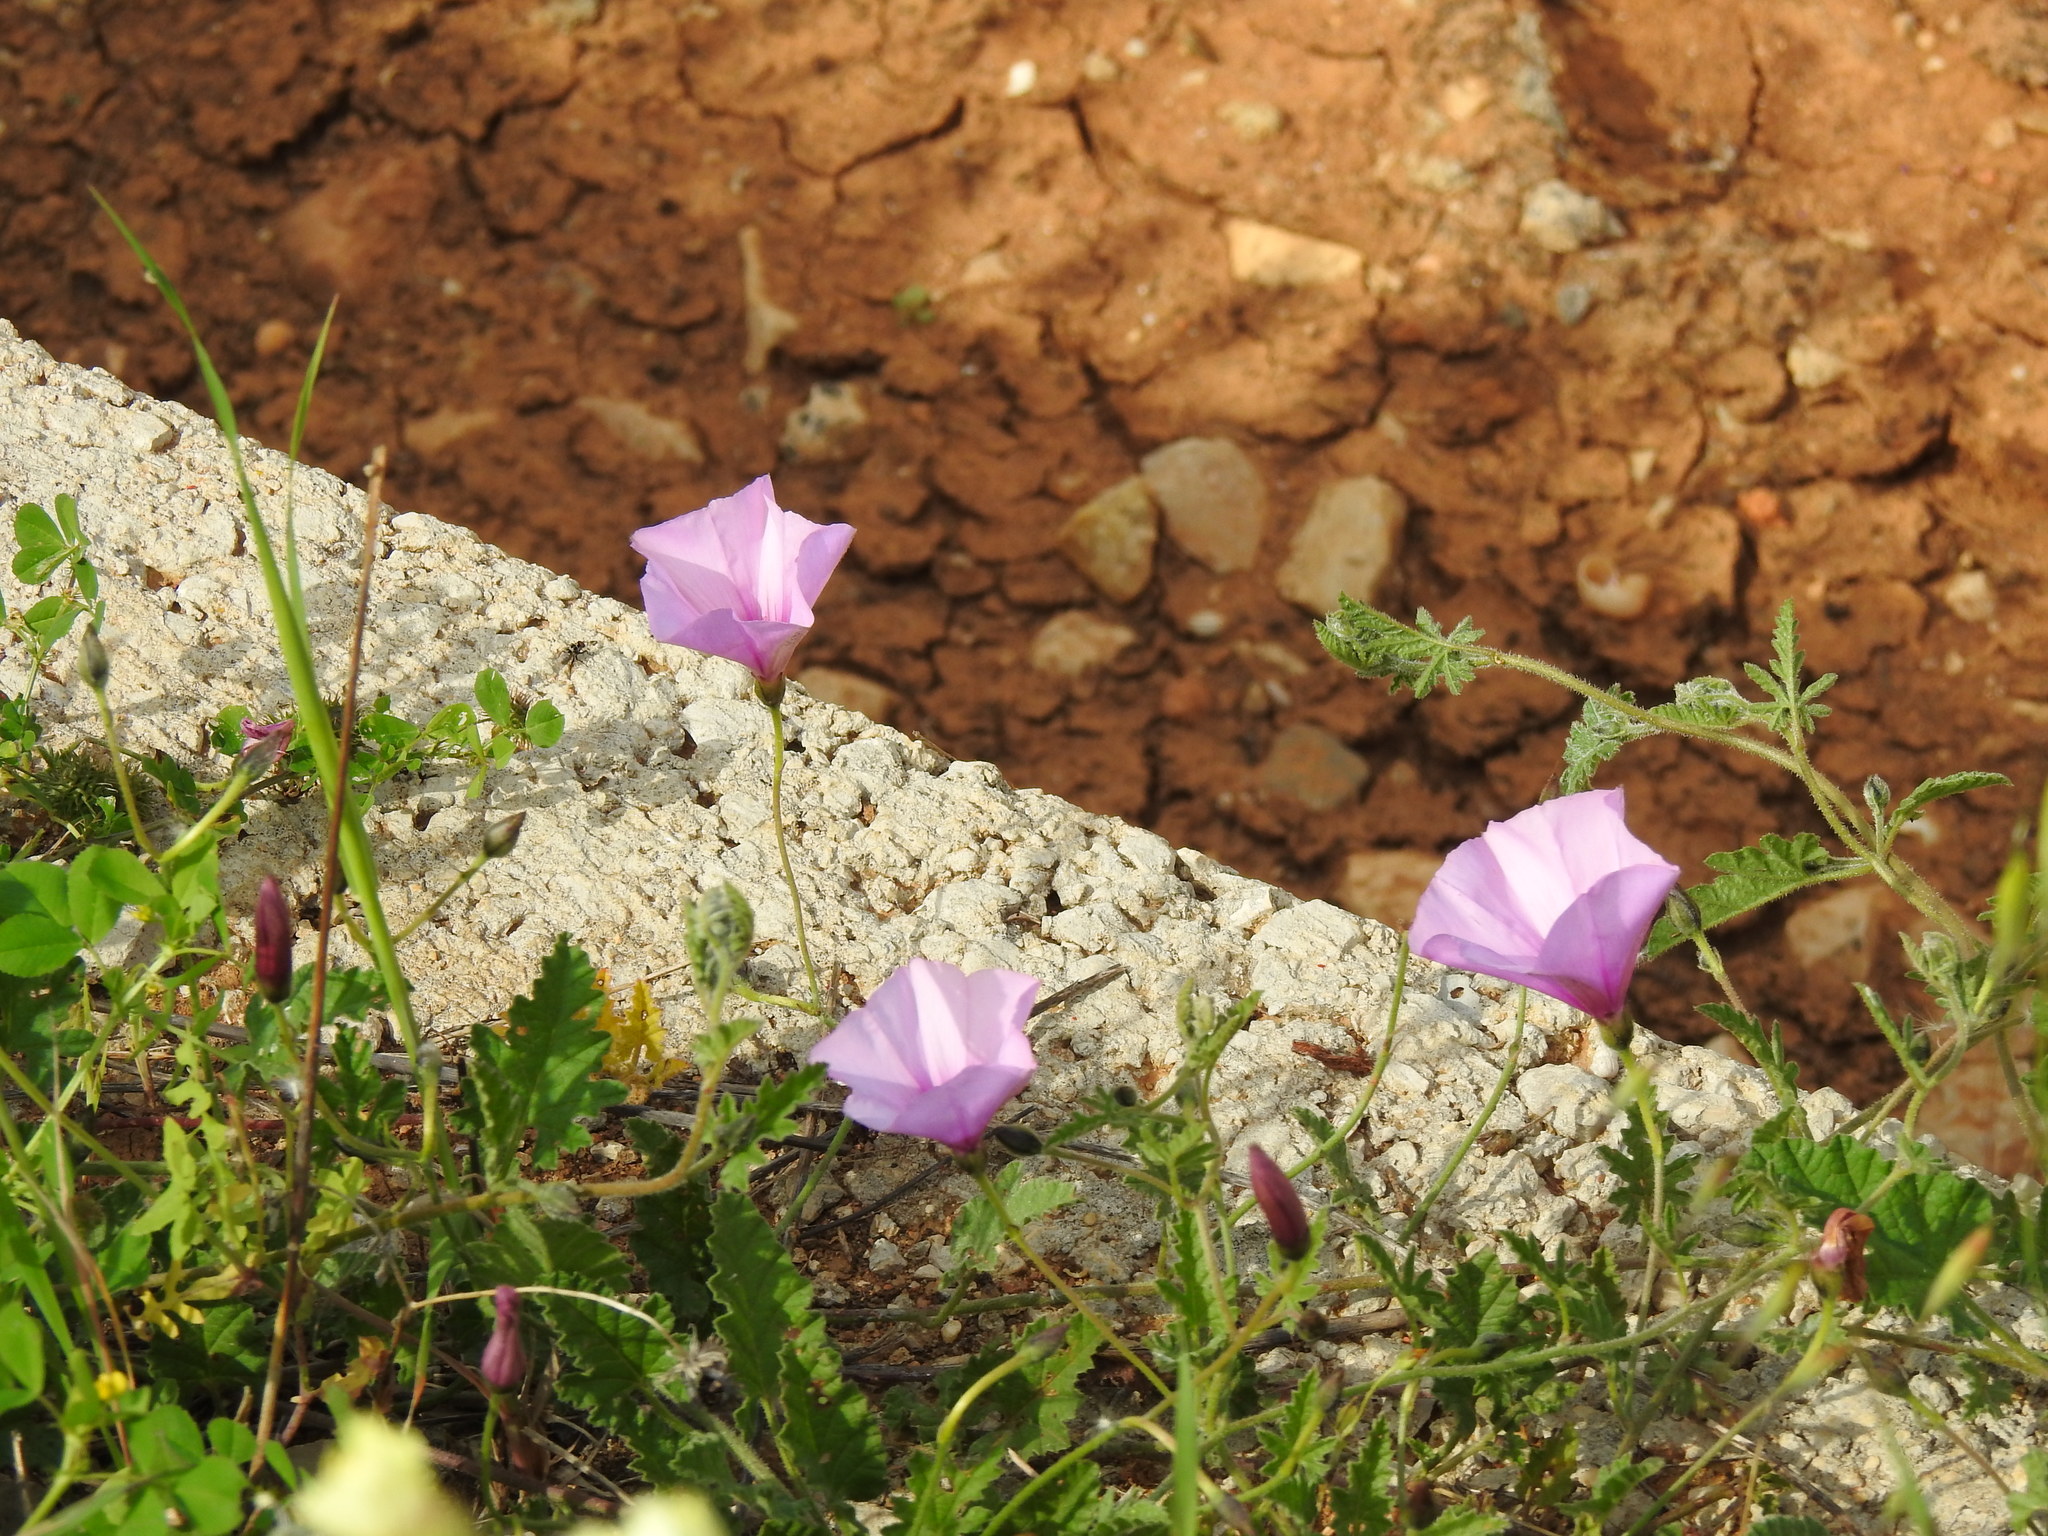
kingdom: Plantae
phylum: Tracheophyta
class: Magnoliopsida
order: Solanales
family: Convolvulaceae
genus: Convolvulus
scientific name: Convolvulus althaeoides
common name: Mallow bindweed
